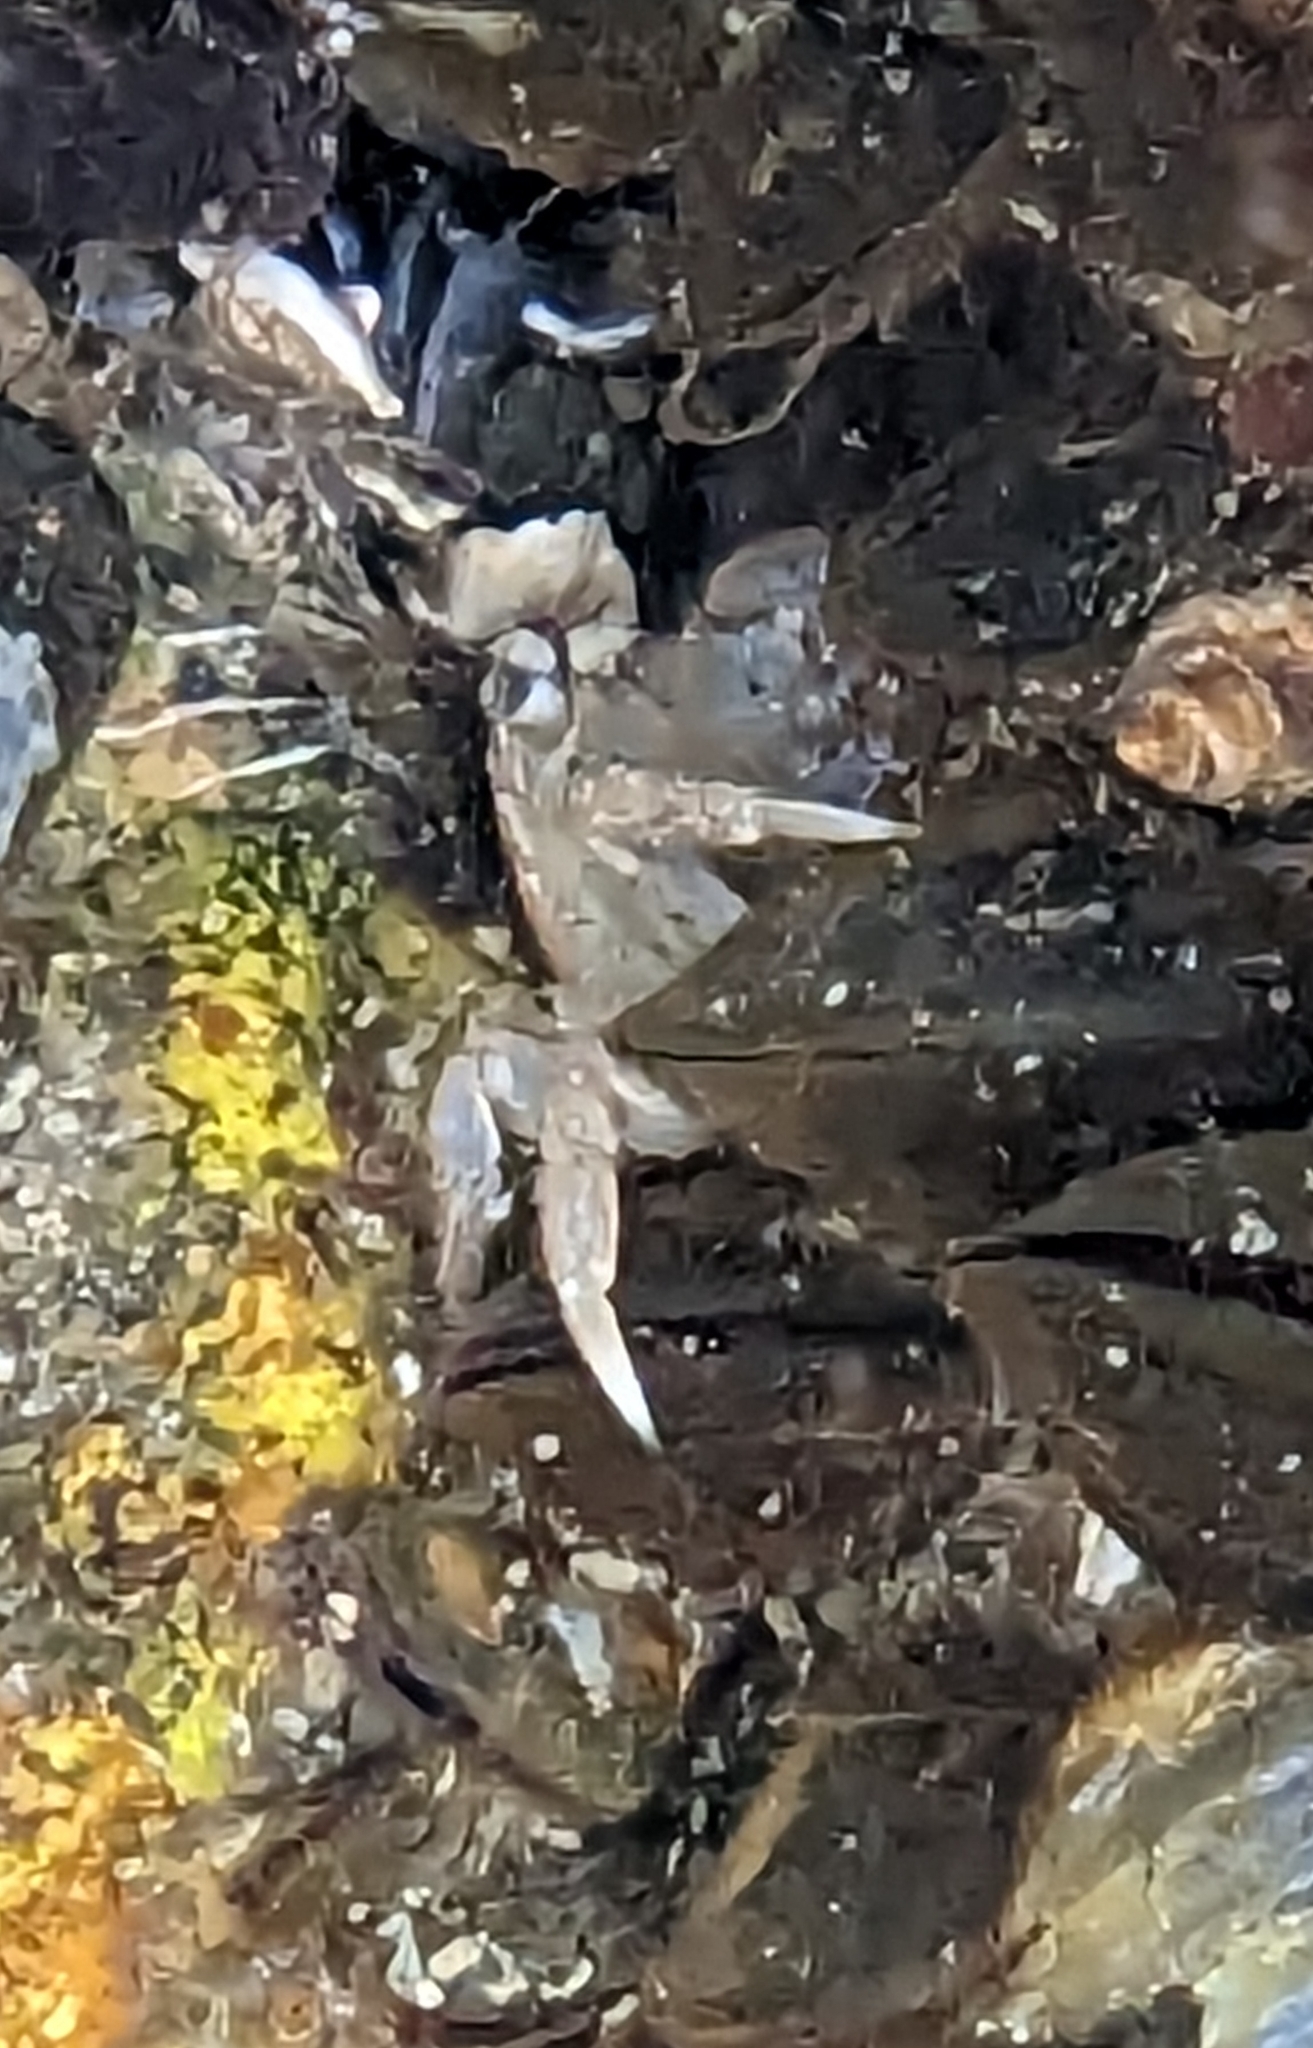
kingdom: Animalia
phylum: Arthropoda
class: Malacostraca
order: Decapoda
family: Varunidae
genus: Hemigrapsus
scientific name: Hemigrapsus oregonensis
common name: Yellow shore crab
